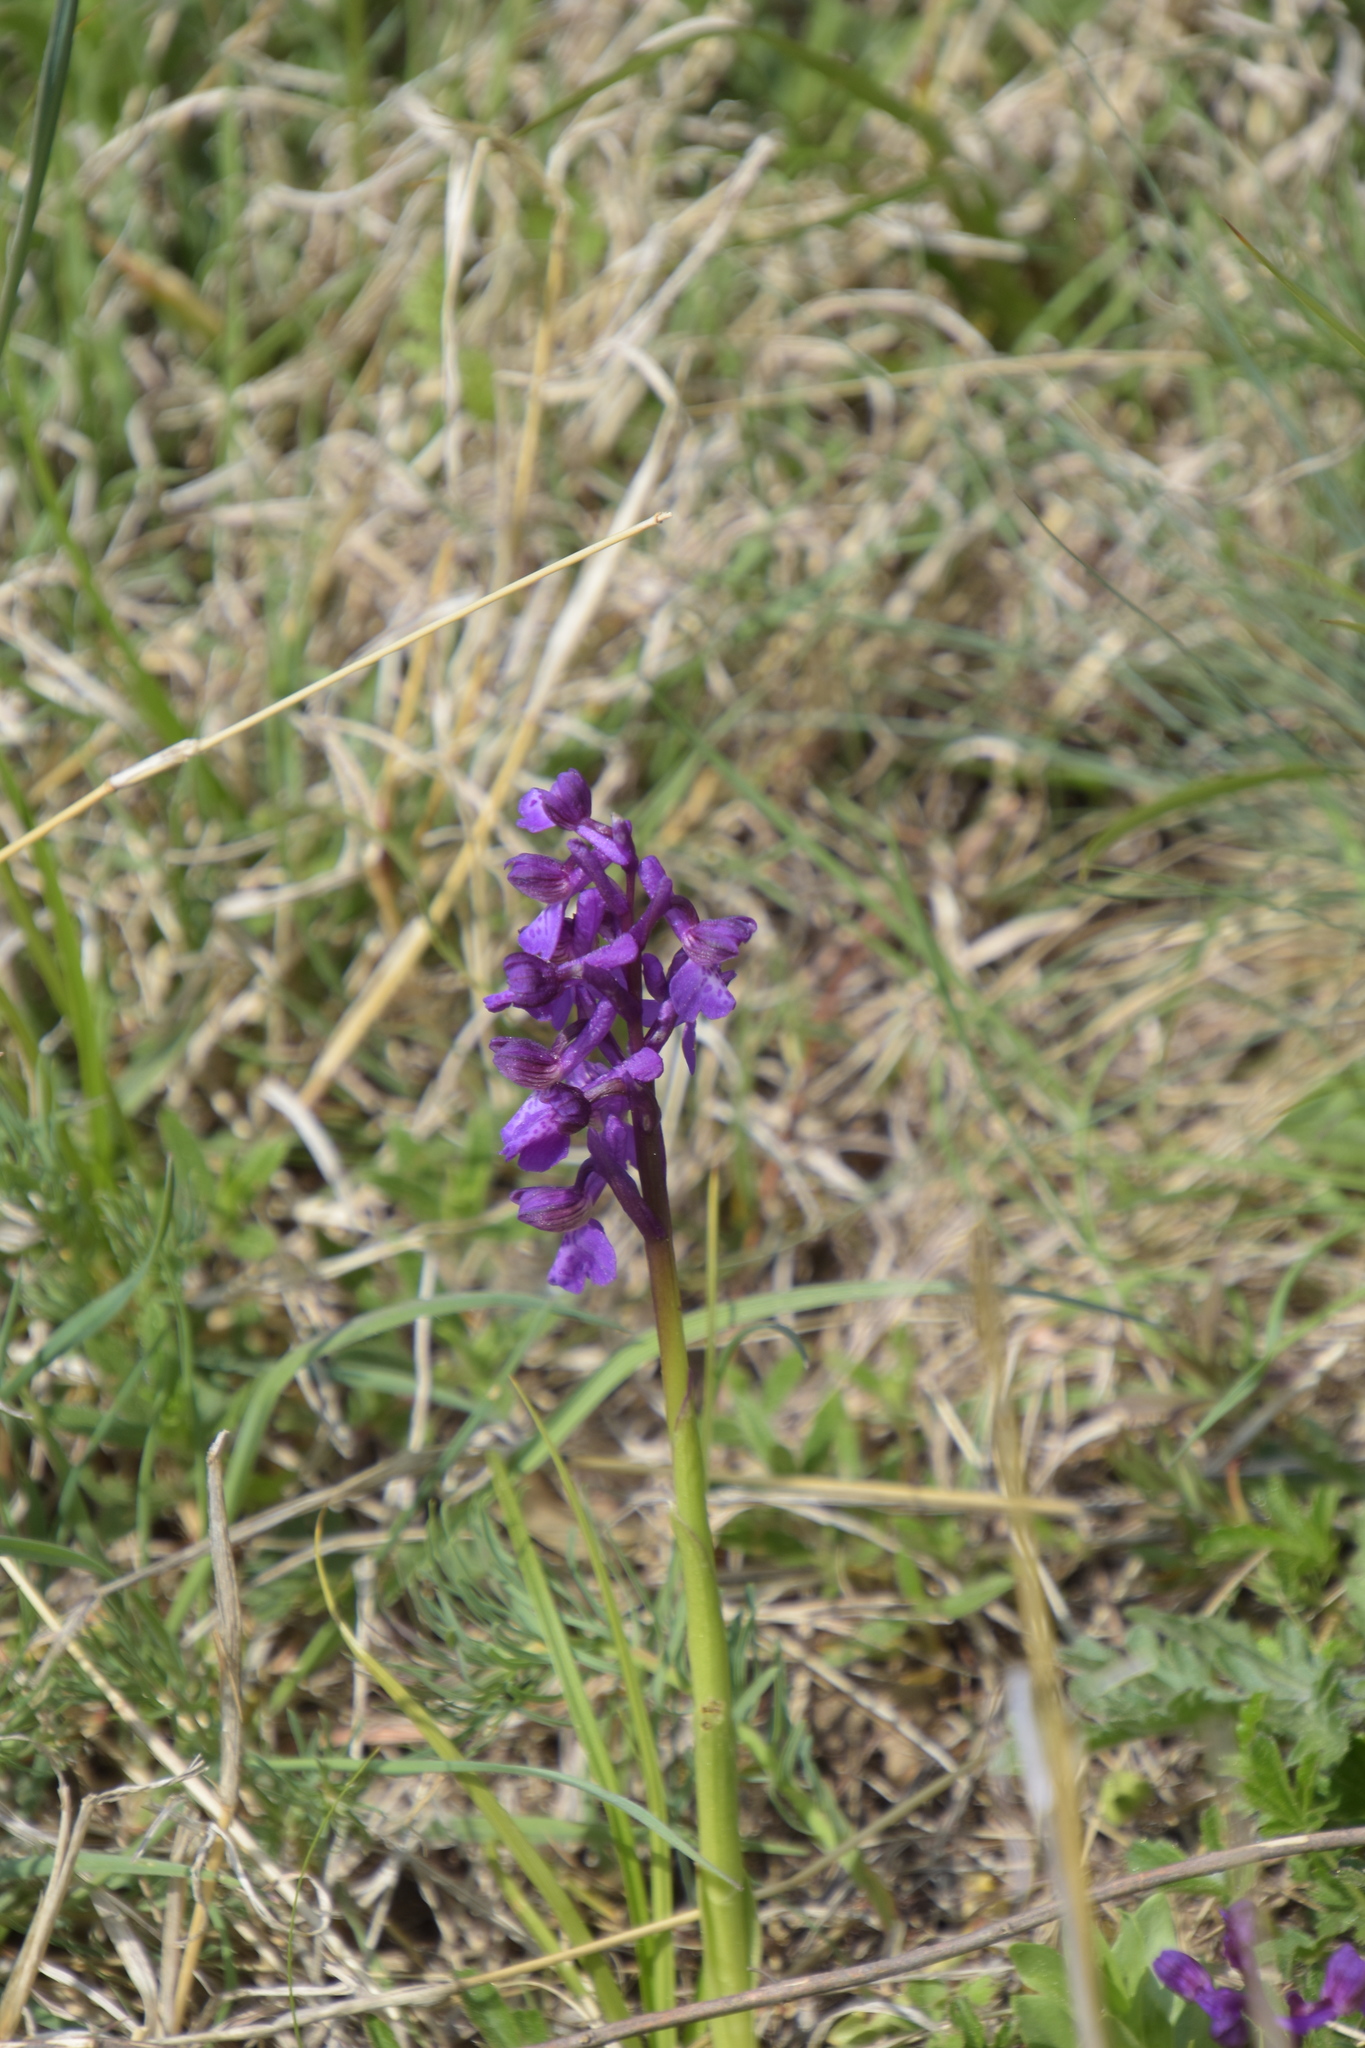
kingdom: Plantae
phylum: Tracheophyta
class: Liliopsida
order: Asparagales
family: Orchidaceae
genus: Anacamptis
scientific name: Anacamptis morio
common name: Green-winged orchid
